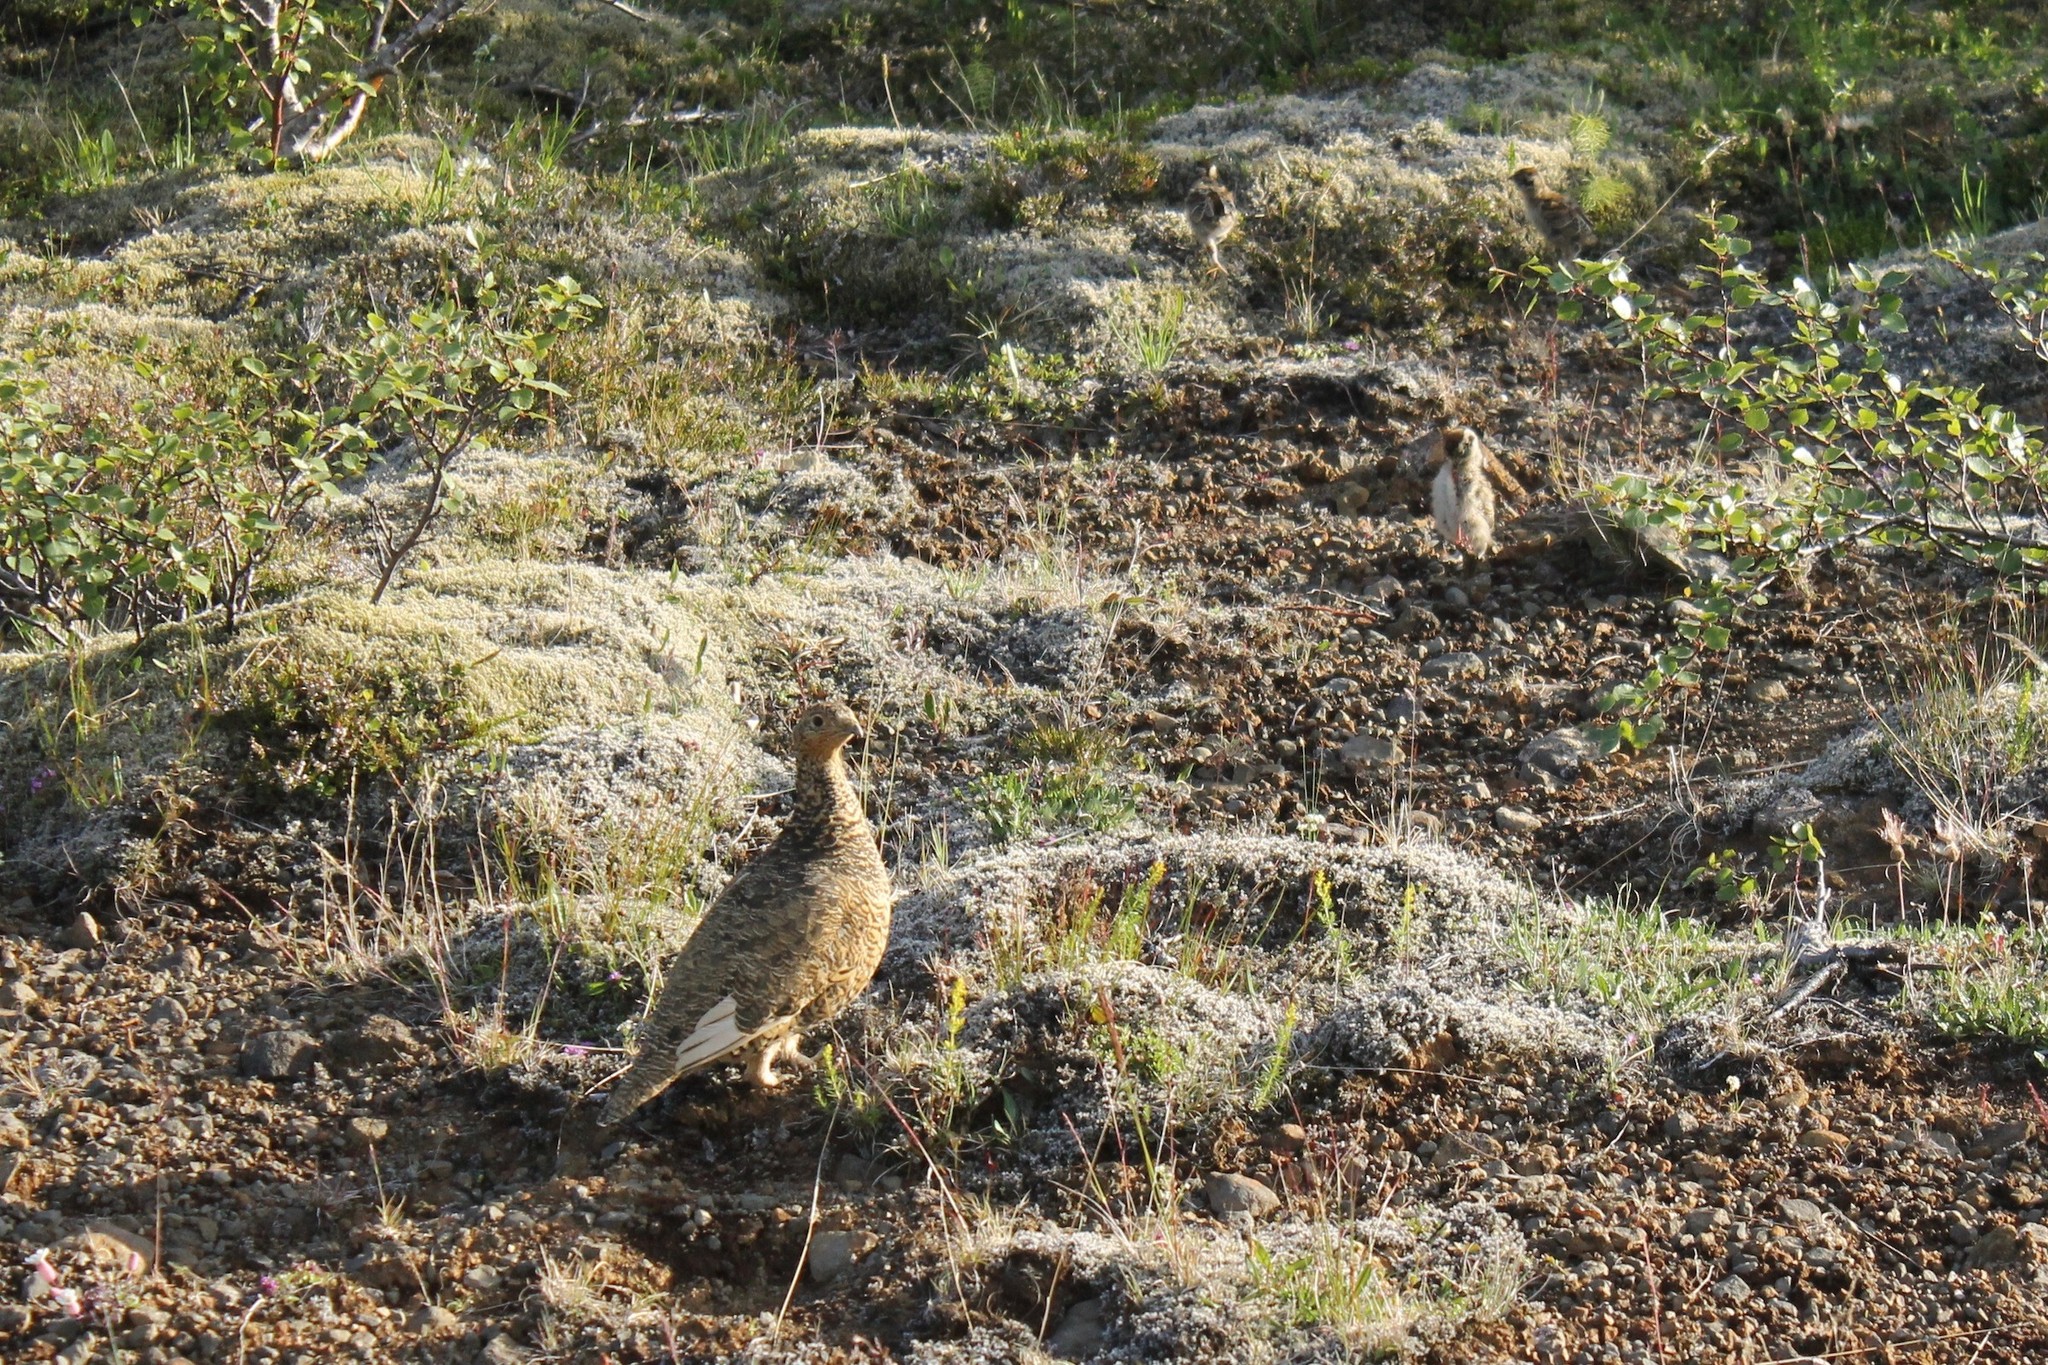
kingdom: Animalia
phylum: Chordata
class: Aves
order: Galliformes
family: Phasianidae
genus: Lagopus
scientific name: Lagopus muta
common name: Rock ptarmigan
